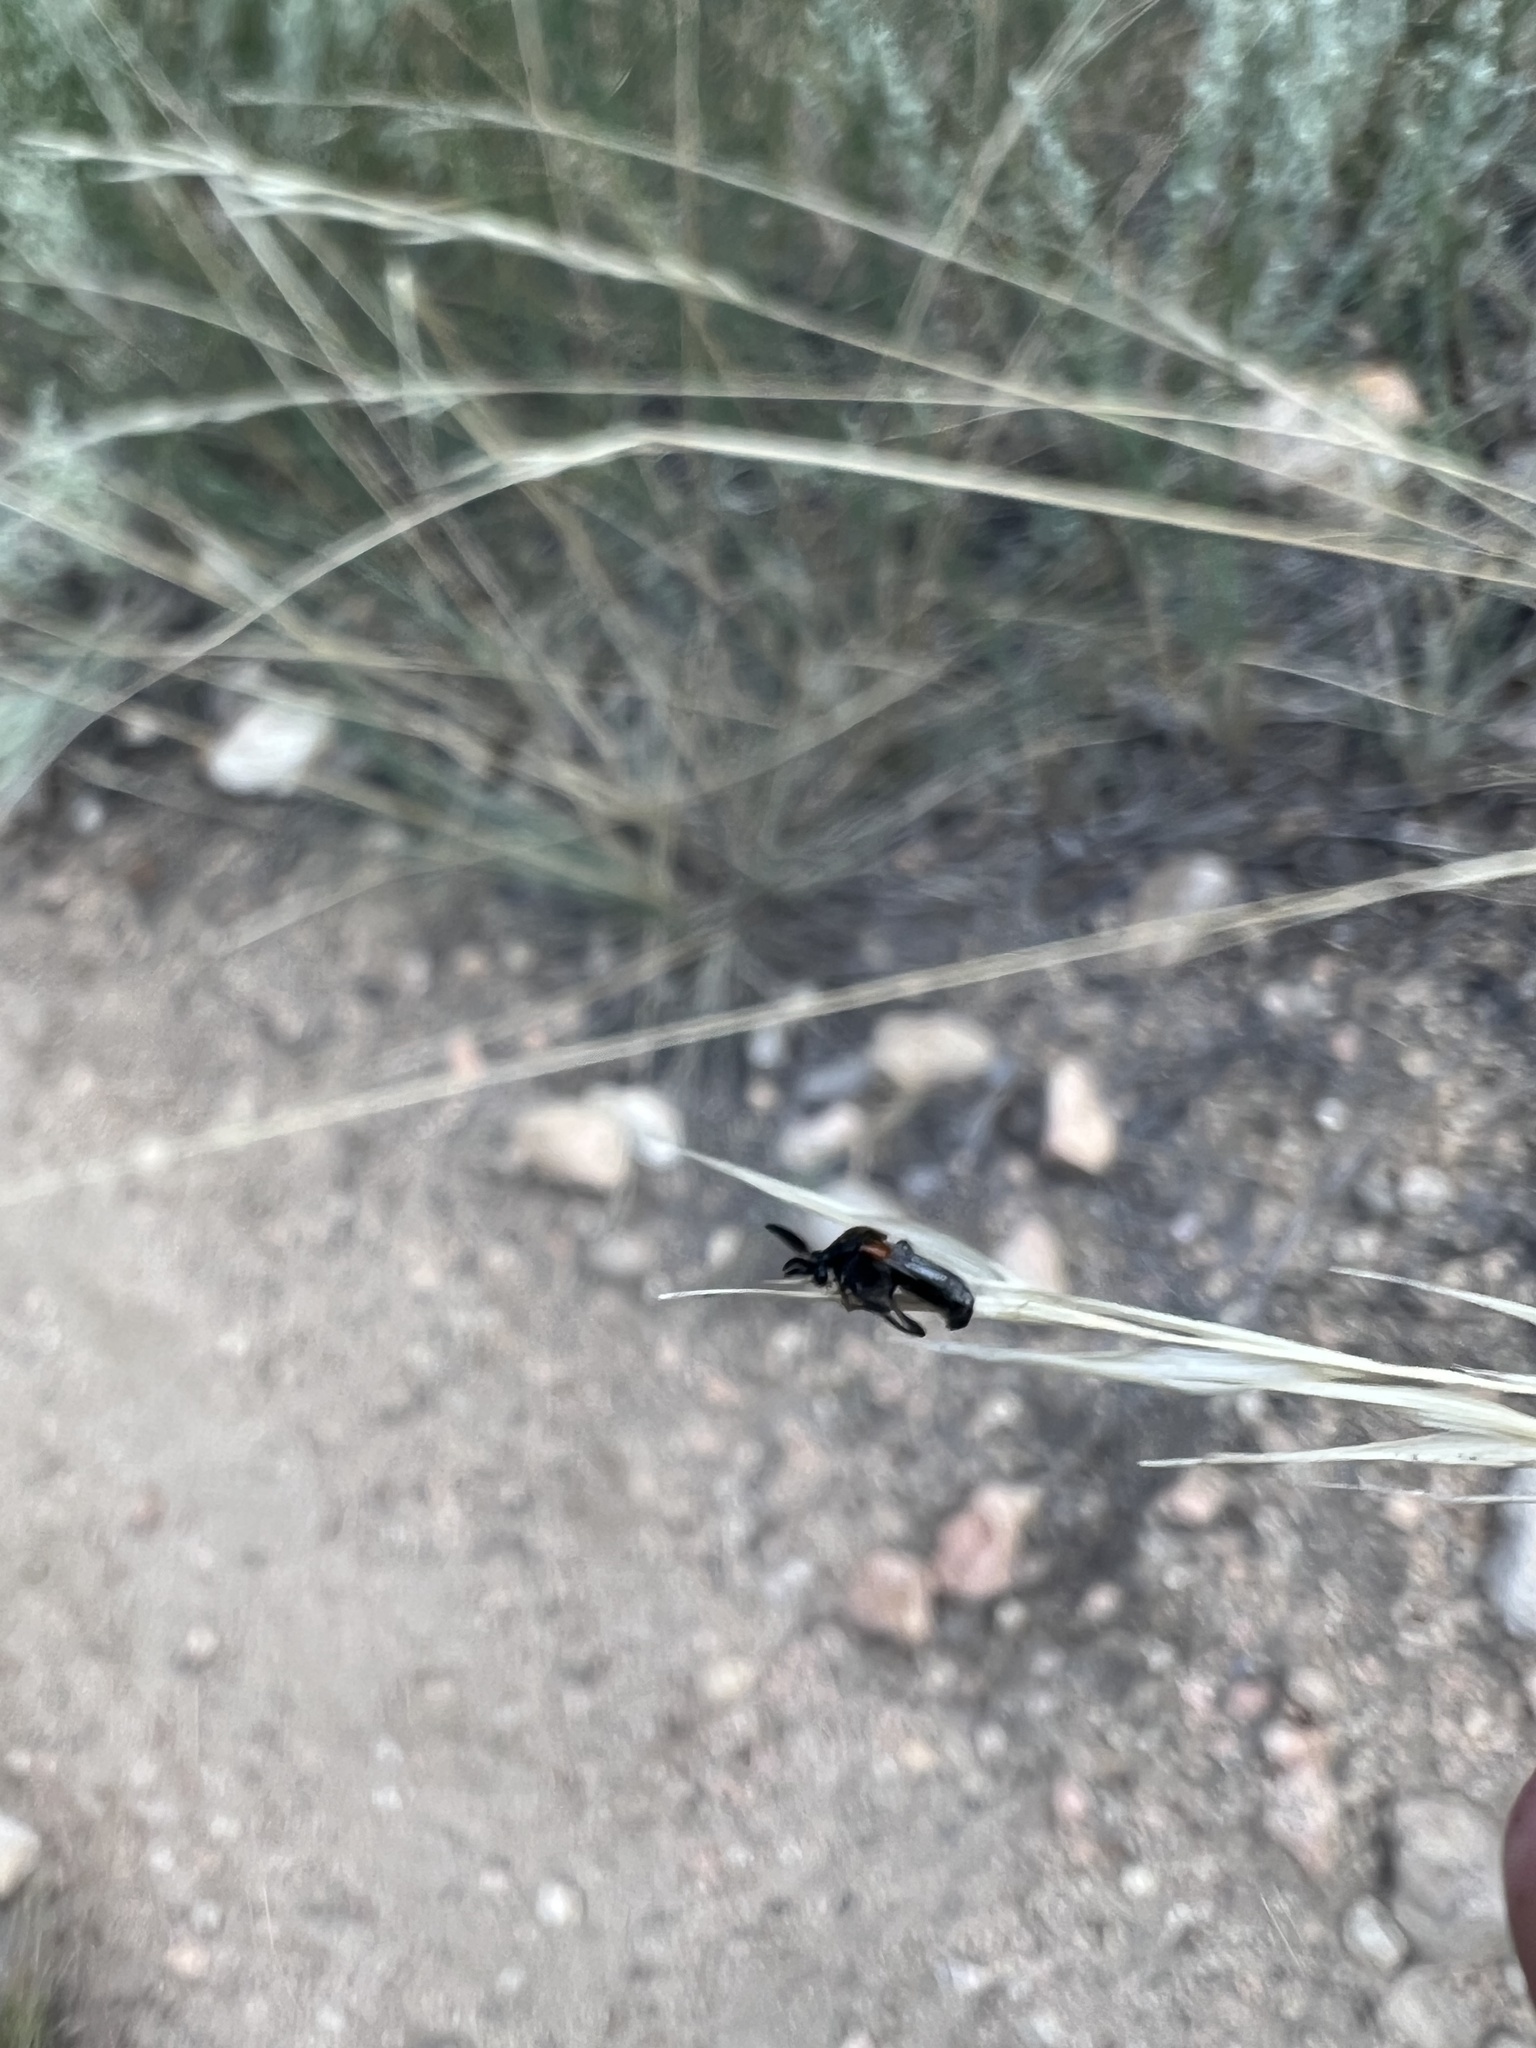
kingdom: Animalia
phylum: Arthropoda
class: Insecta
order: Coleoptera
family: Ripiphoridae
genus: Ripiphorus
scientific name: Ripiphorus iridescens
